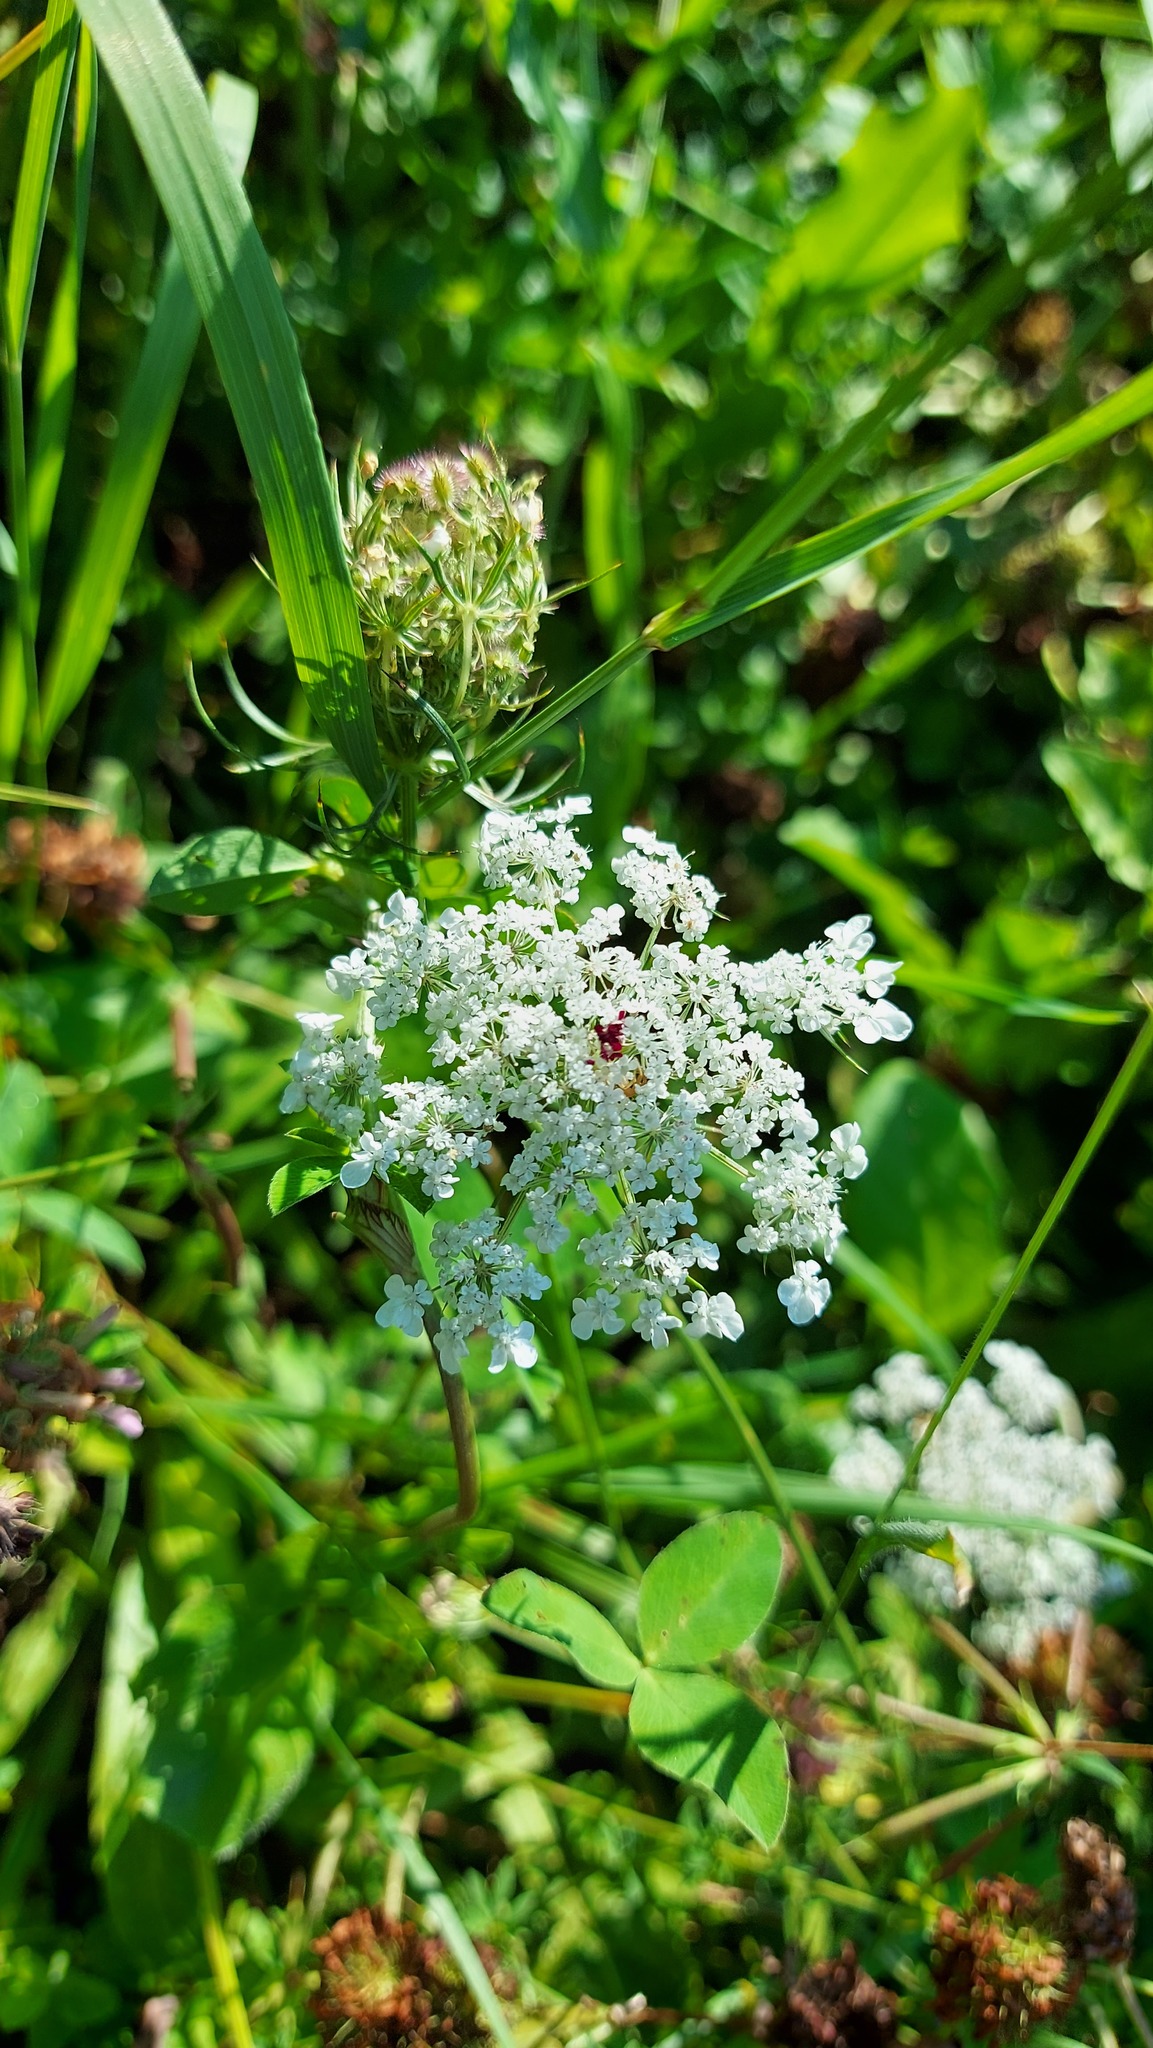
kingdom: Plantae
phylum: Tracheophyta
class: Magnoliopsida
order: Apiales
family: Apiaceae
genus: Daucus
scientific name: Daucus carota
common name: Wild carrot
